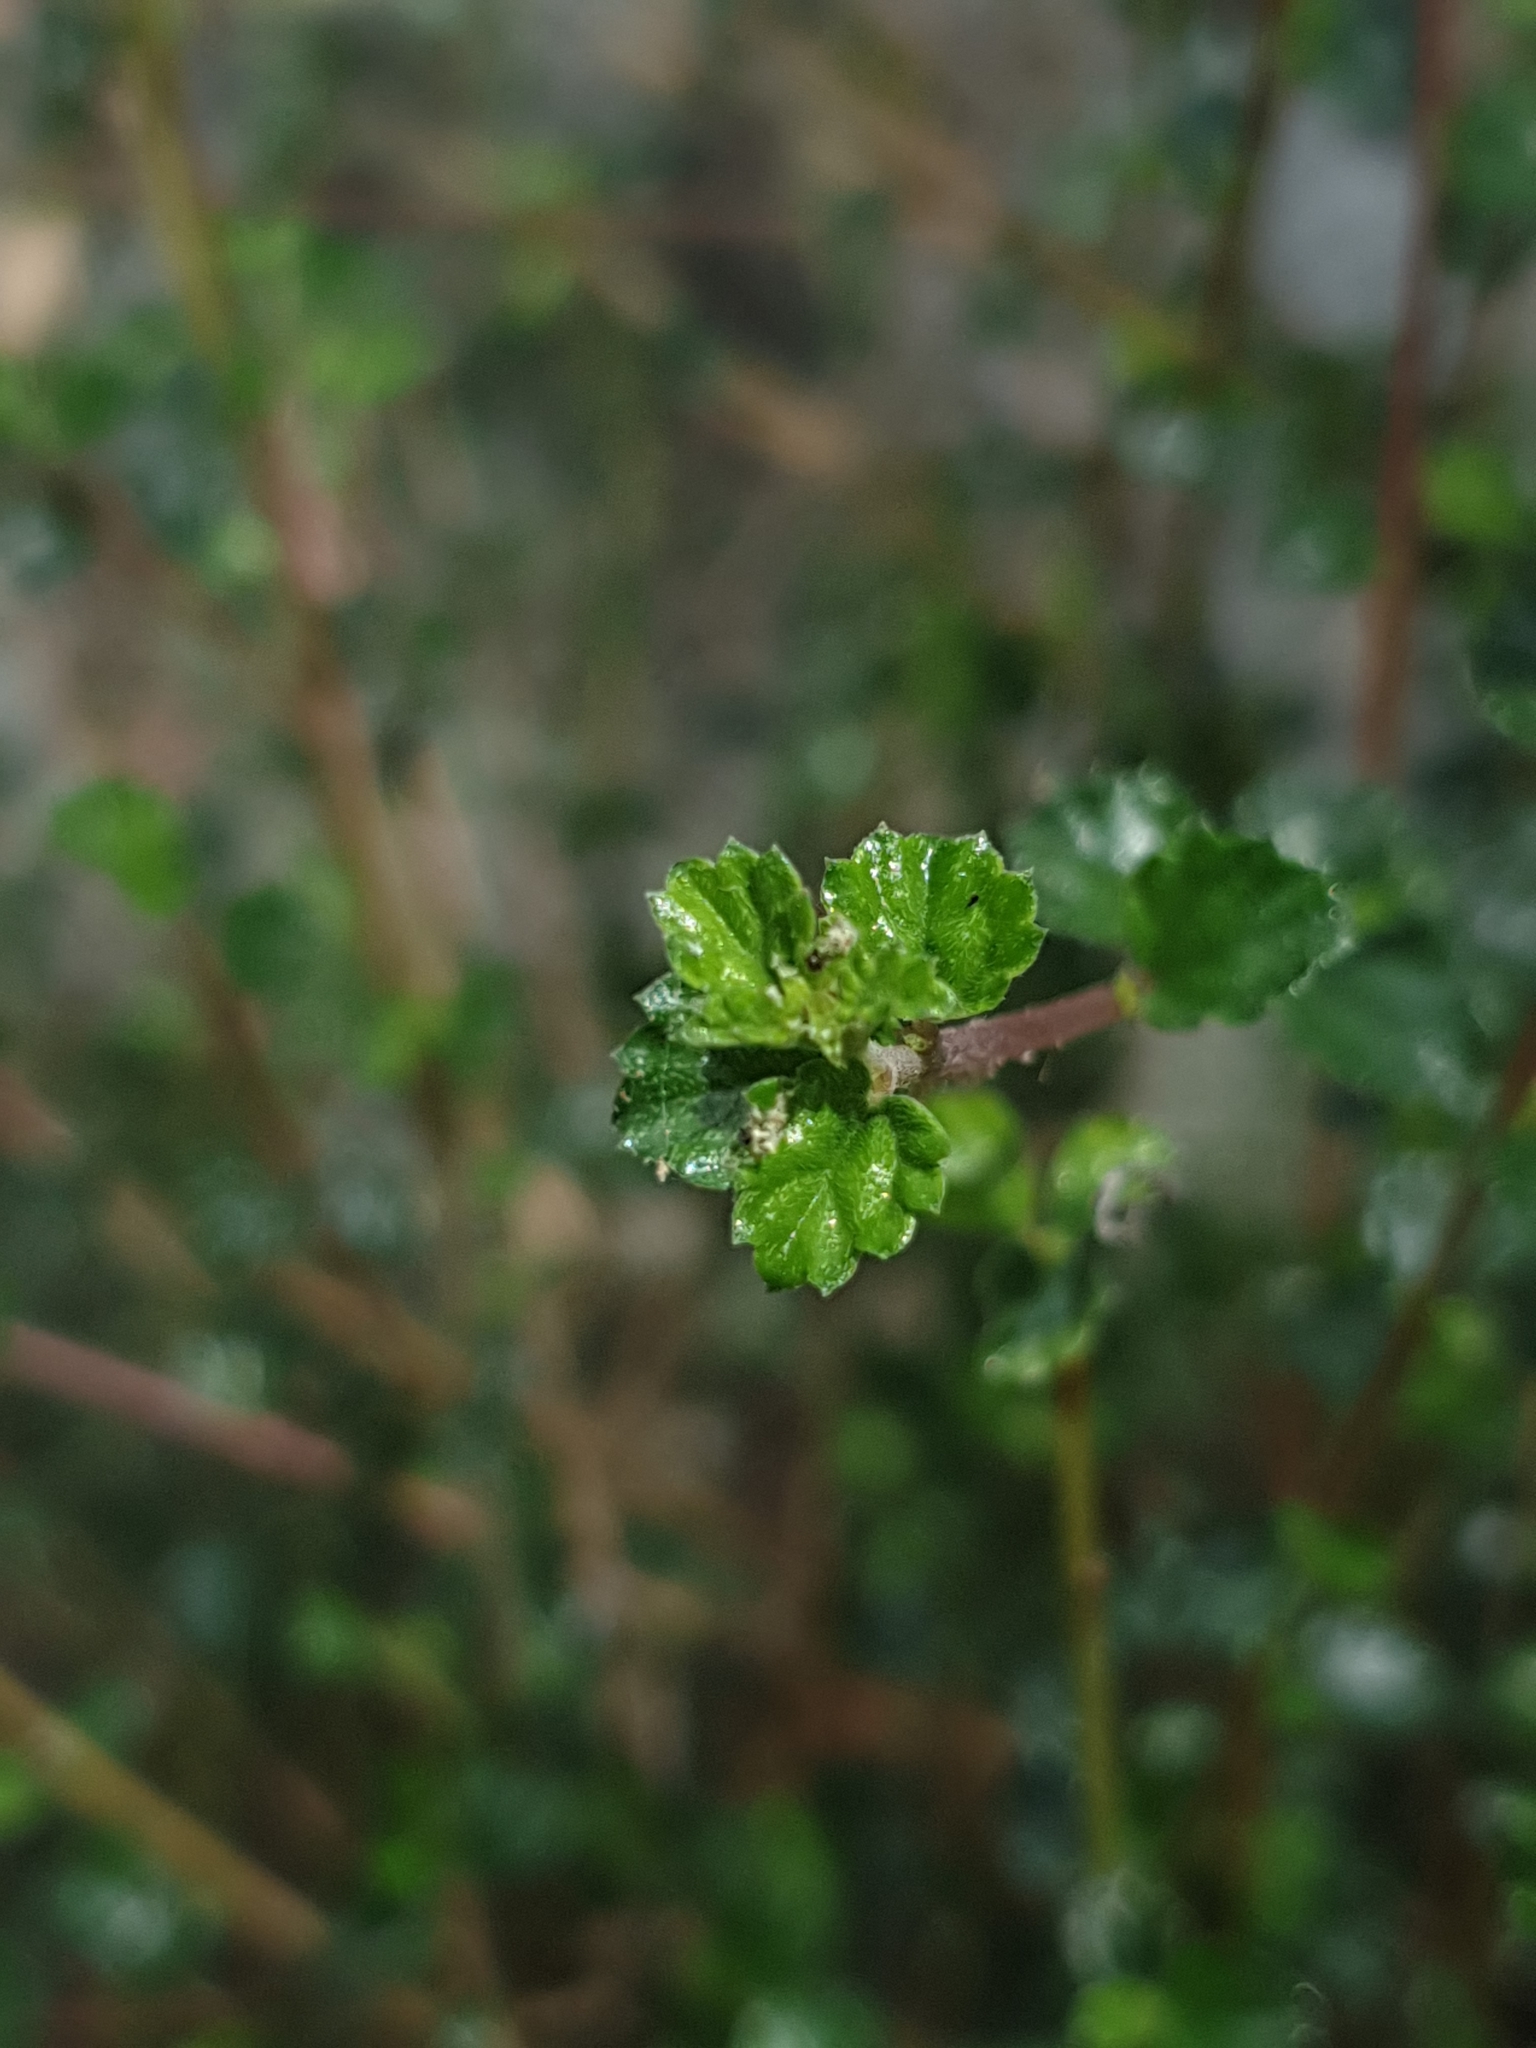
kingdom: Plantae
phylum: Tracheophyta
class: Magnoliopsida
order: Rosales
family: Urticaceae
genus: Pouzolzia
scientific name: Pouzolzia sanguinea
